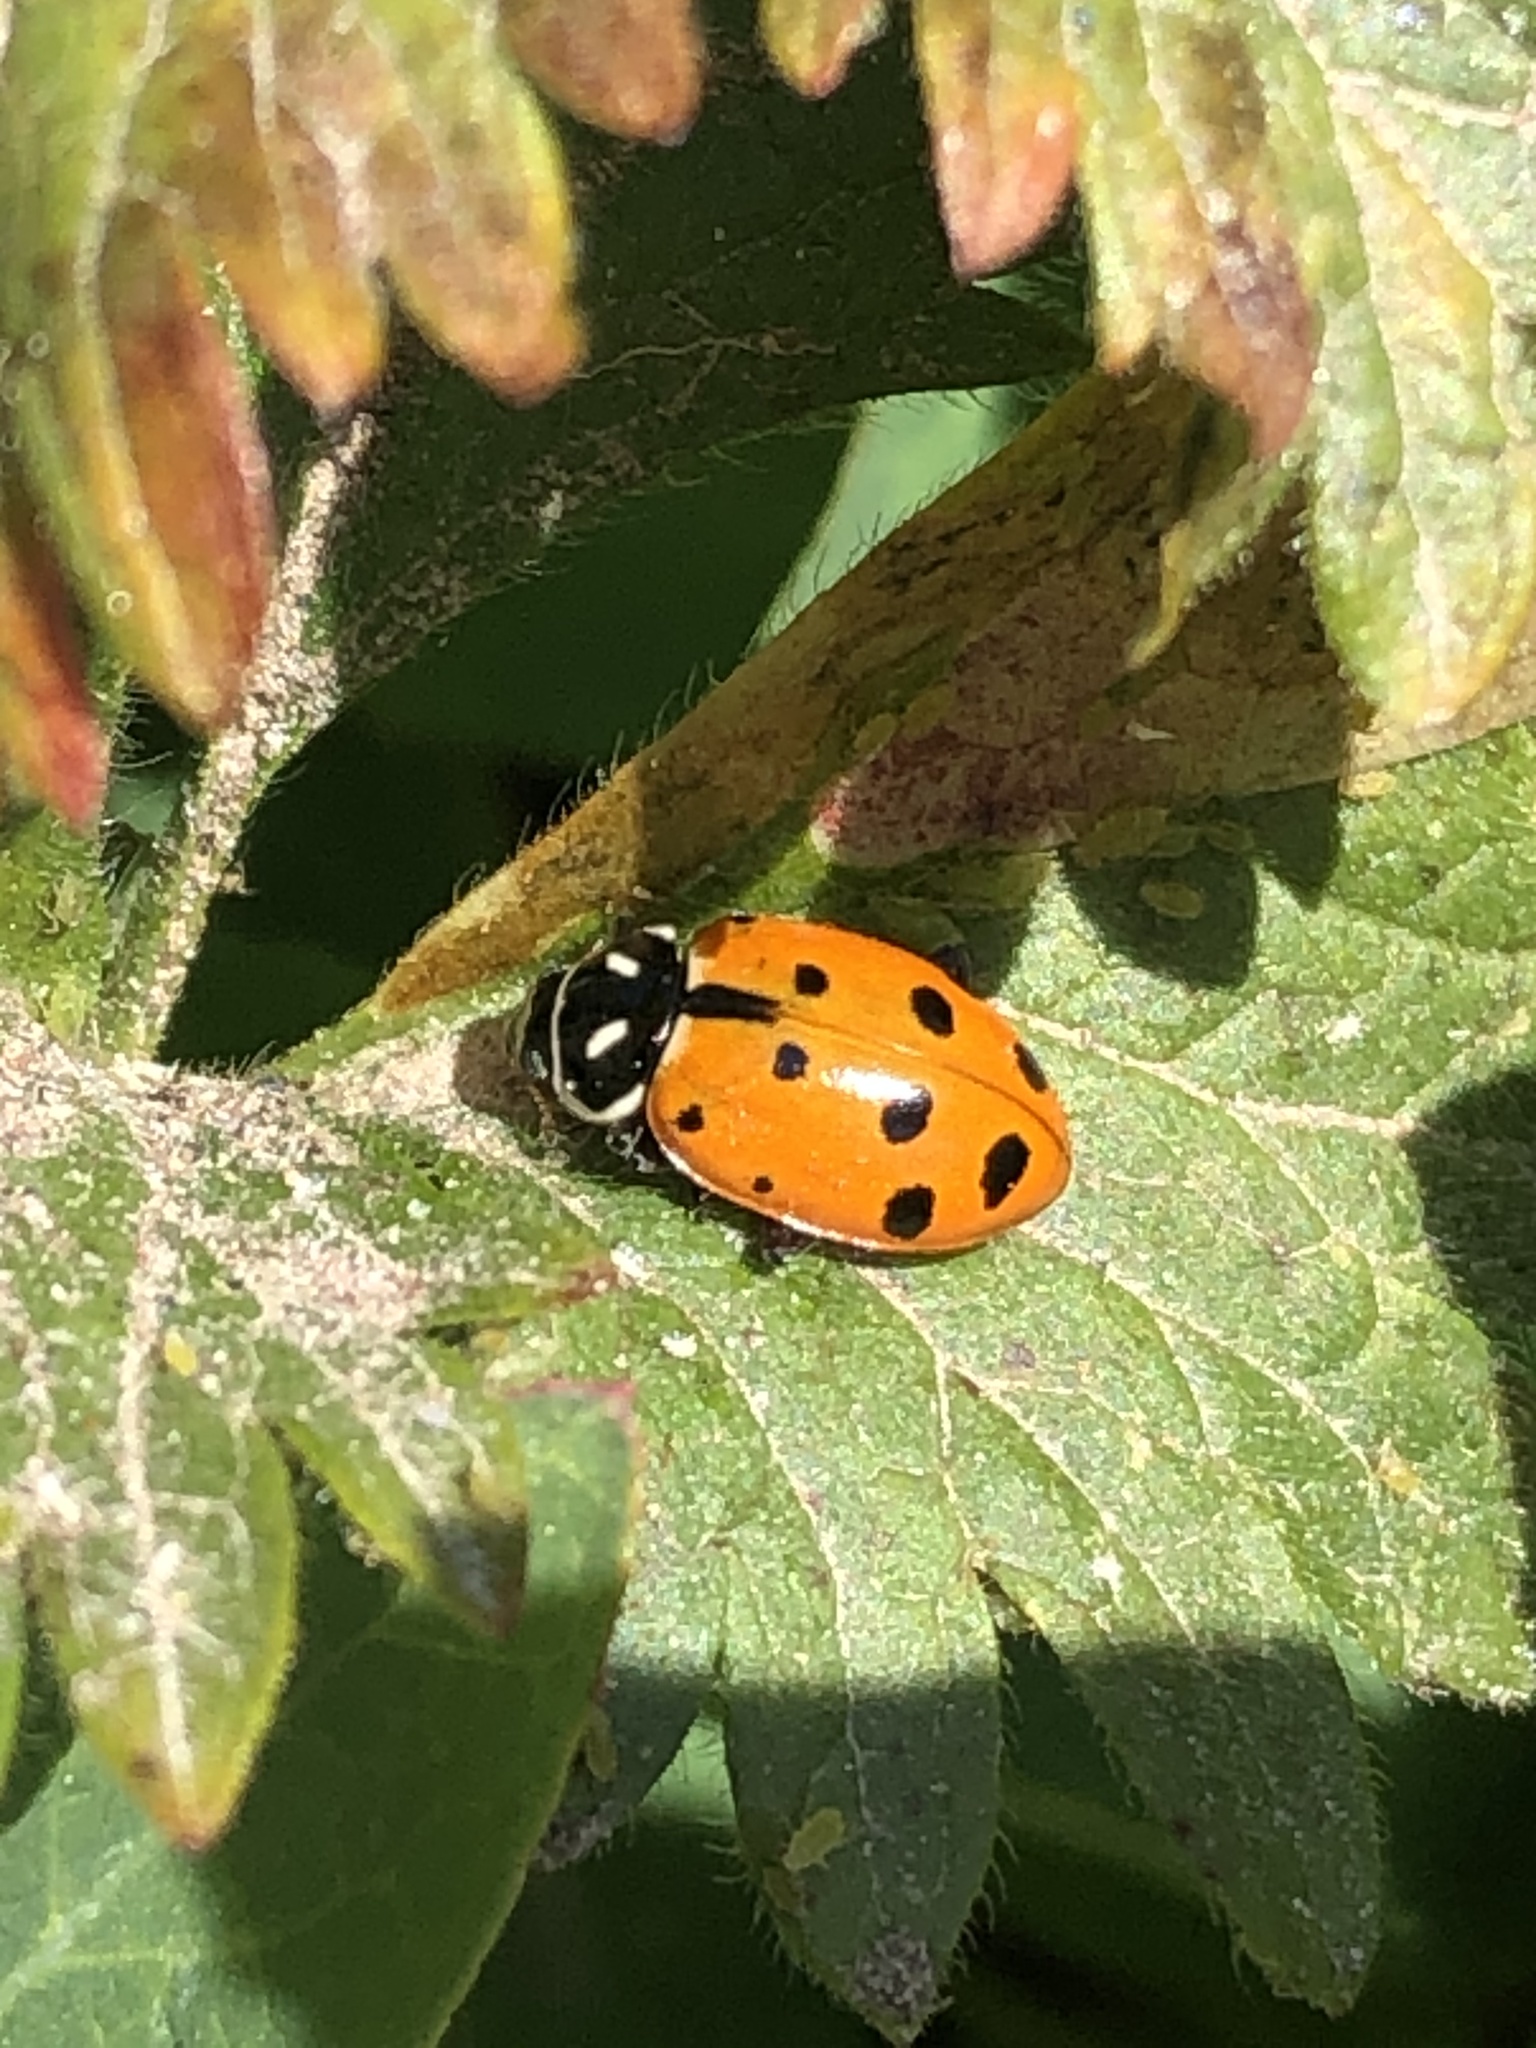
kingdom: Animalia
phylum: Arthropoda
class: Insecta
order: Coleoptera
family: Coccinellidae
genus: Hippodamia
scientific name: Hippodamia convergens
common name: Convergent lady beetle
